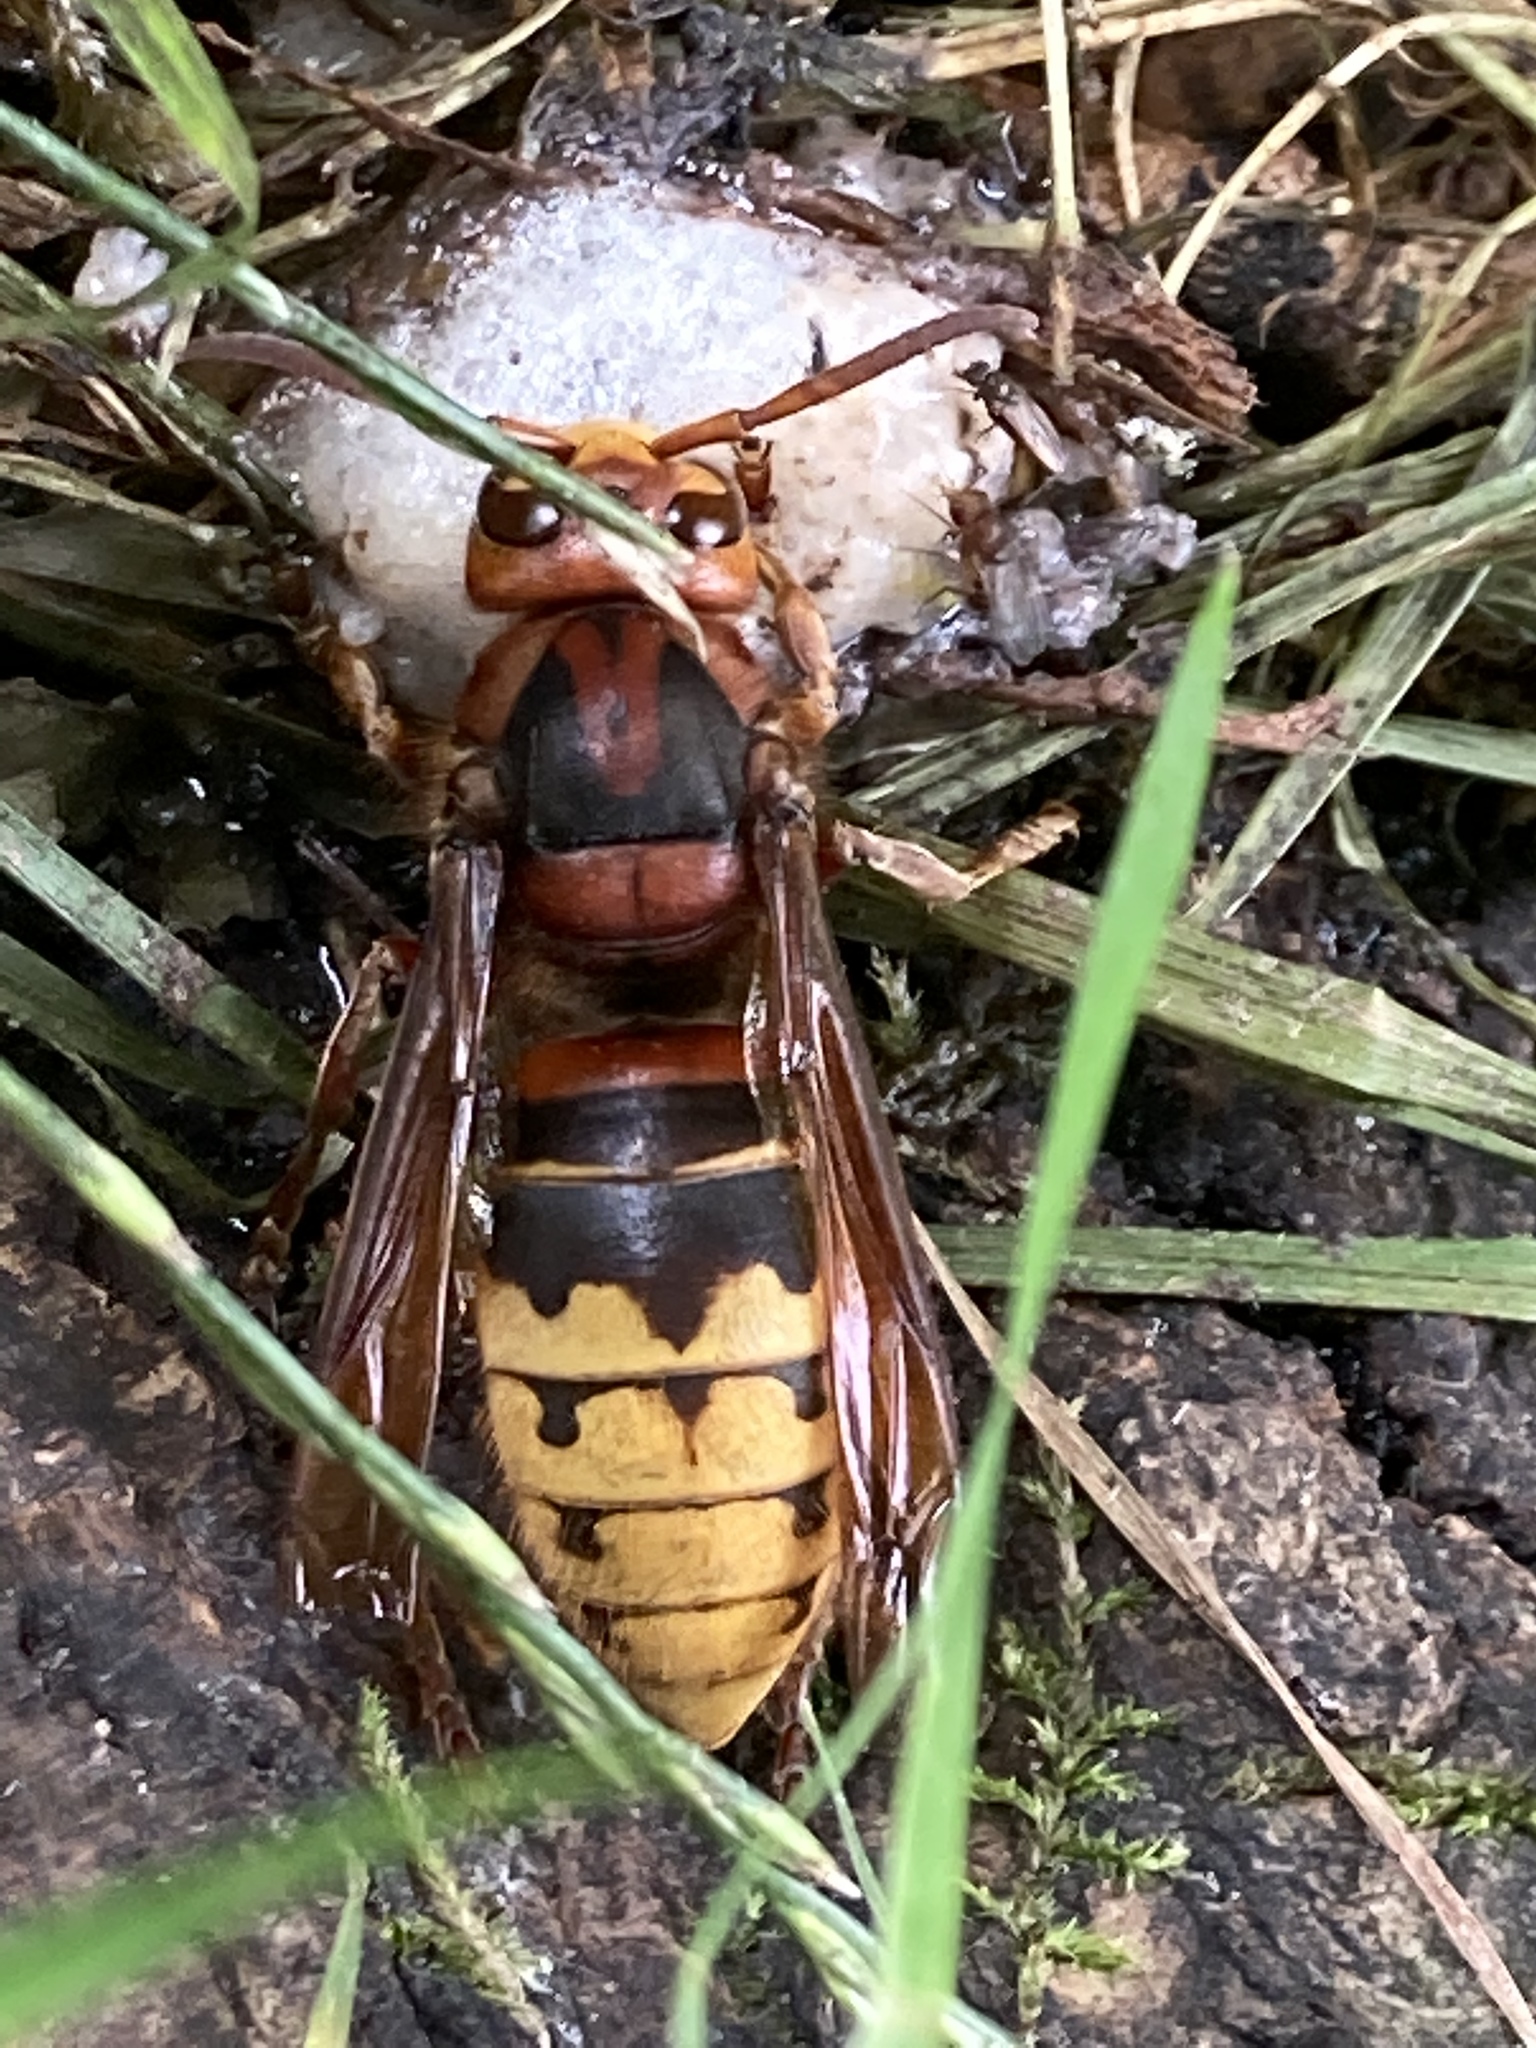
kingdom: Animalia
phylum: Arthropoda
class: Insecta
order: Hymenoptera
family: Vespidae
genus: Vespa
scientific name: Vespa crabro
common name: Hornet
